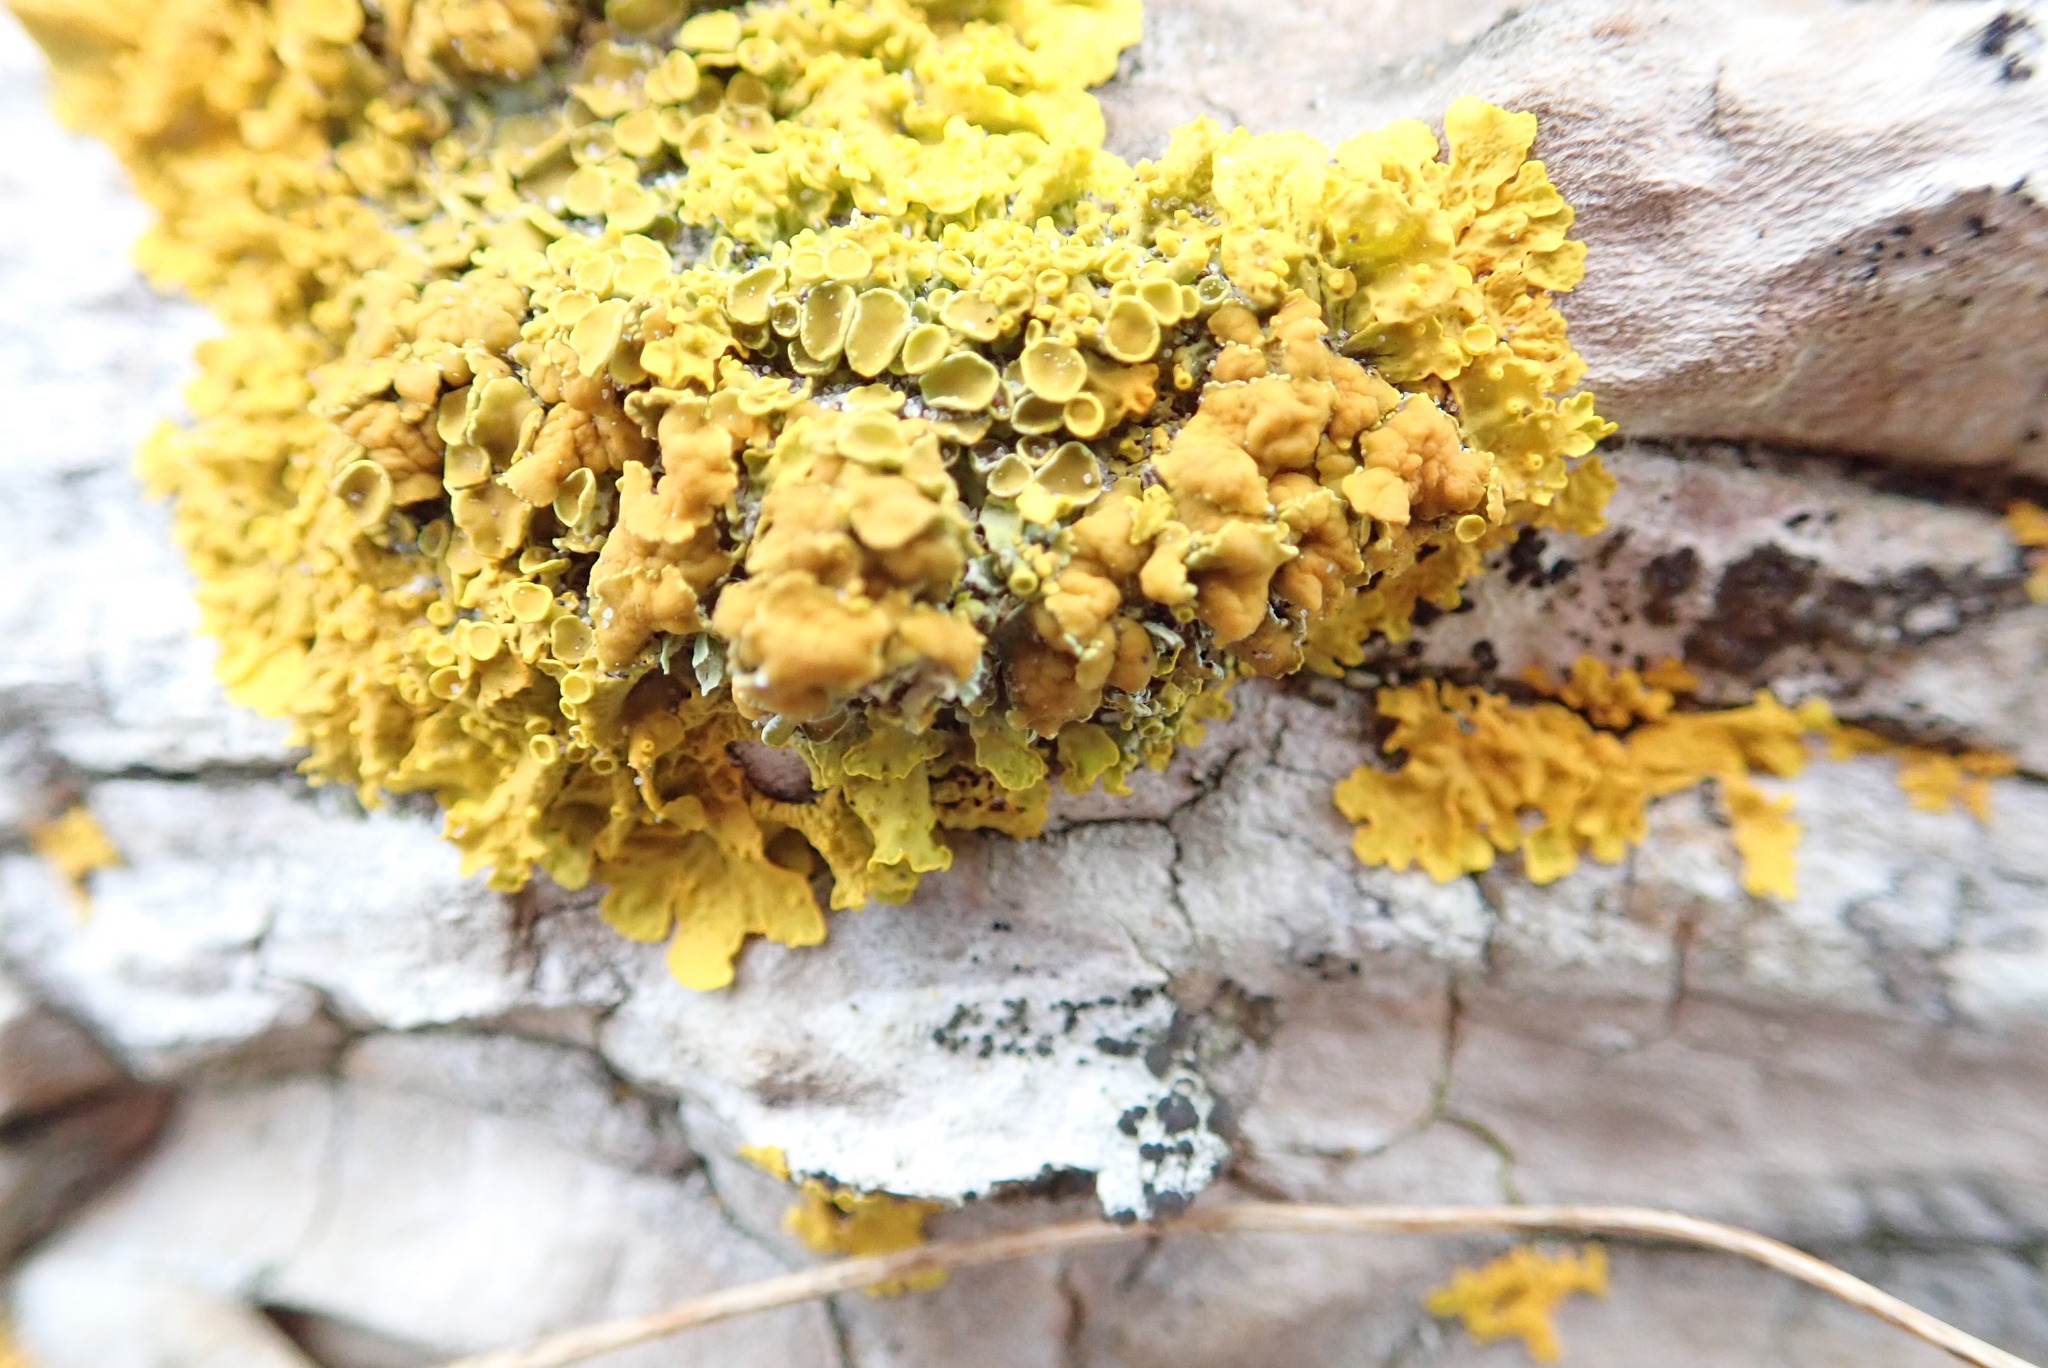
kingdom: Fungi
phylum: Ascomycota
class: Lecanoromycetes
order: Teloschistales
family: Teloschistaceae
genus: Xanthoria
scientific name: Xanthoria parietina
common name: Common orange lichen
